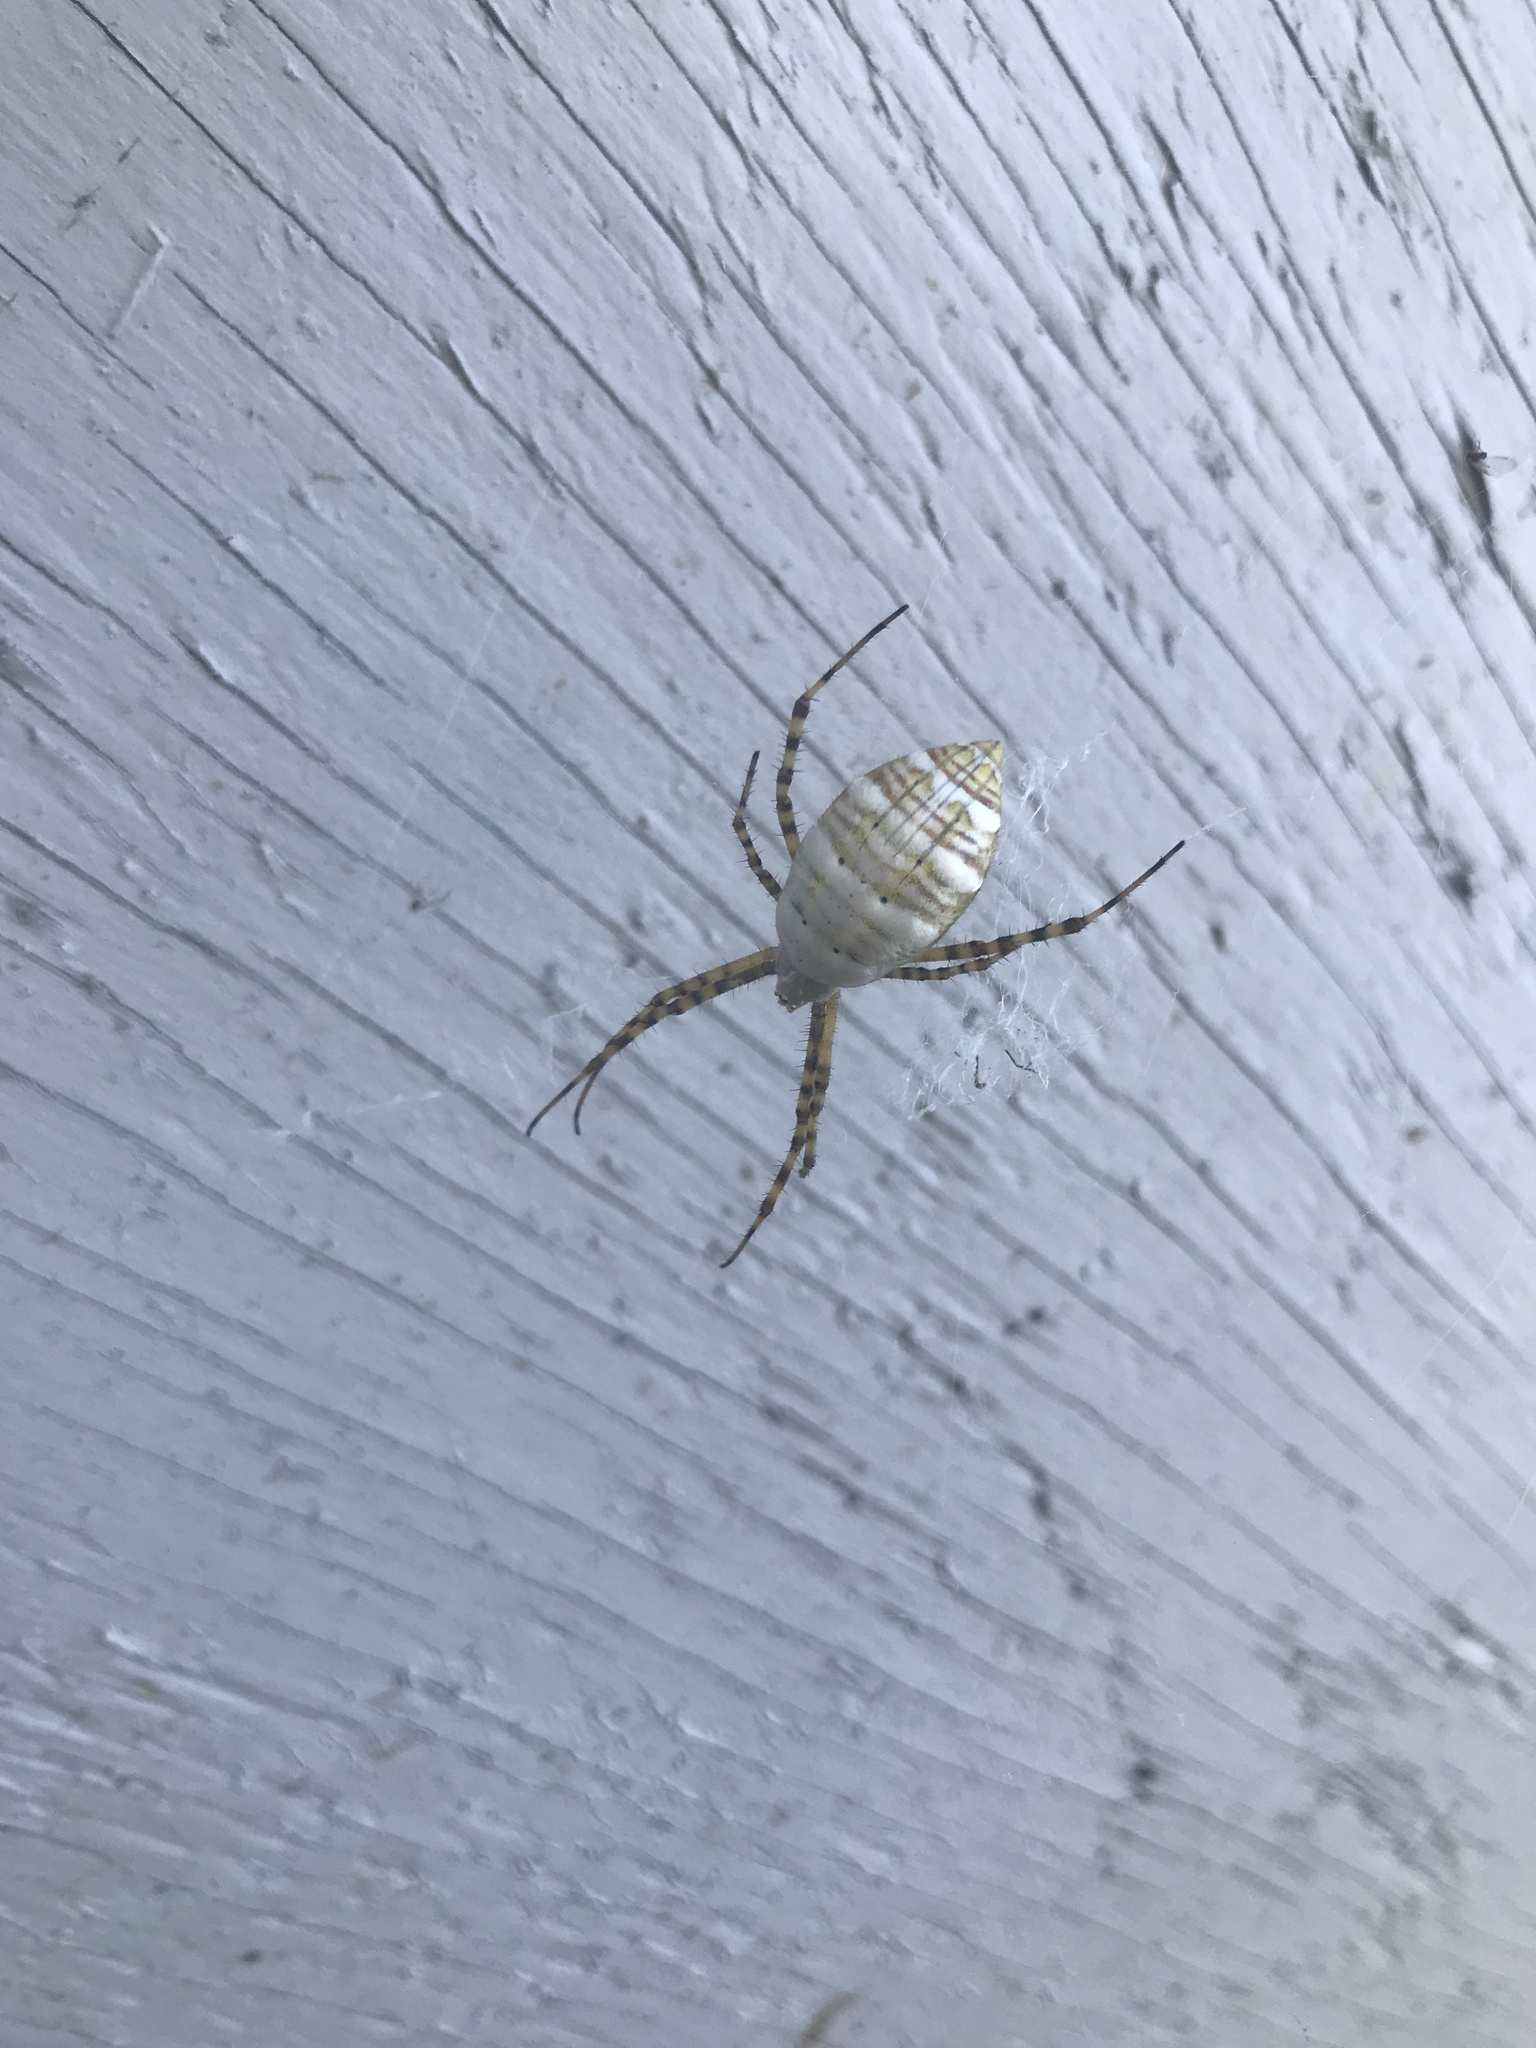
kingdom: Animalia
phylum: Arthropoda
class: Arachnida
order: Araneae
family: Araneidae
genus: Argiope
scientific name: Argiope trifasciata
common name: Banded garden spider
